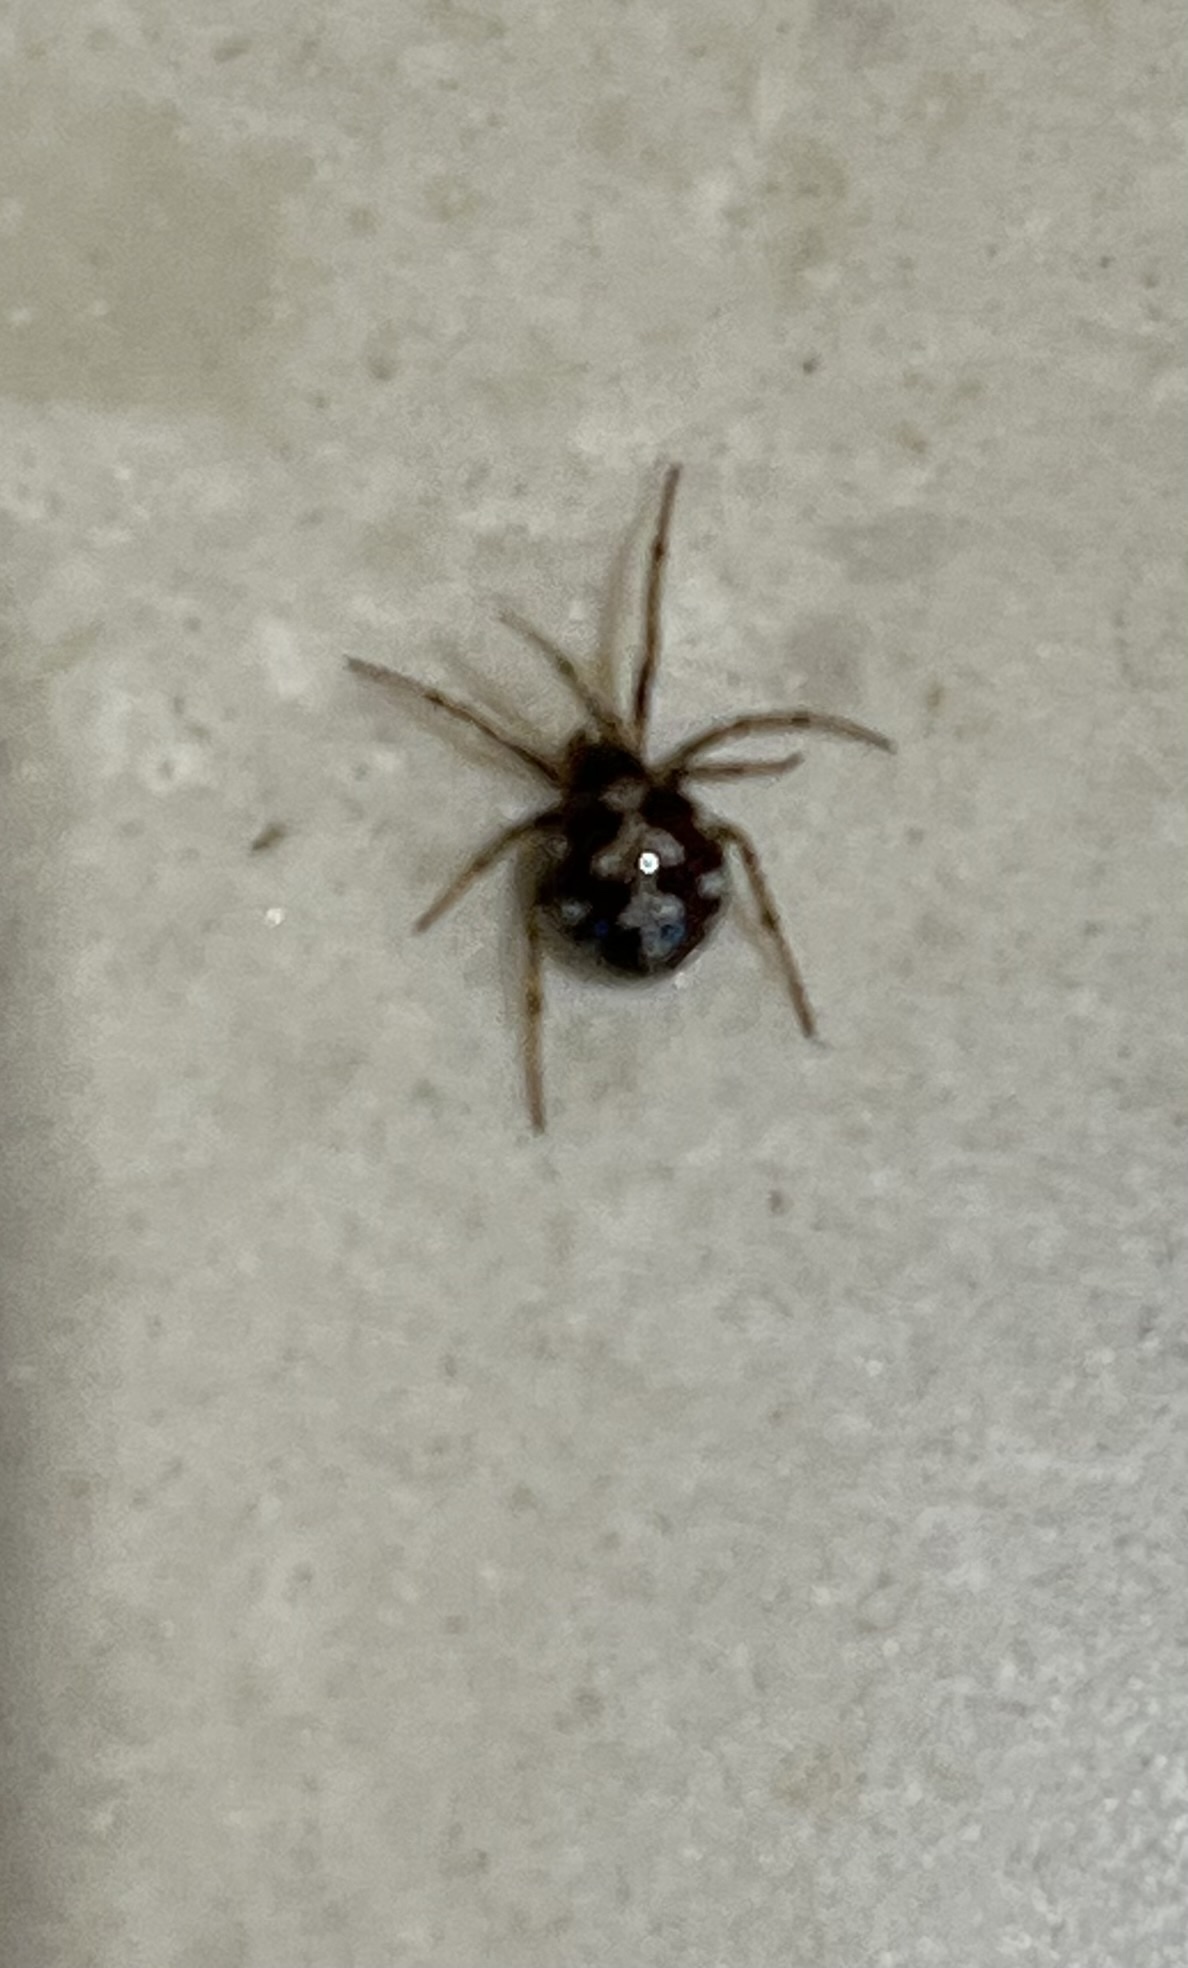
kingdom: Animalia
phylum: Arthropoda
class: Arachnida
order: Araneae
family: Theridiidae
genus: Steatoda
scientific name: Steatoda triangulosa
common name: Triangulate bud spider
